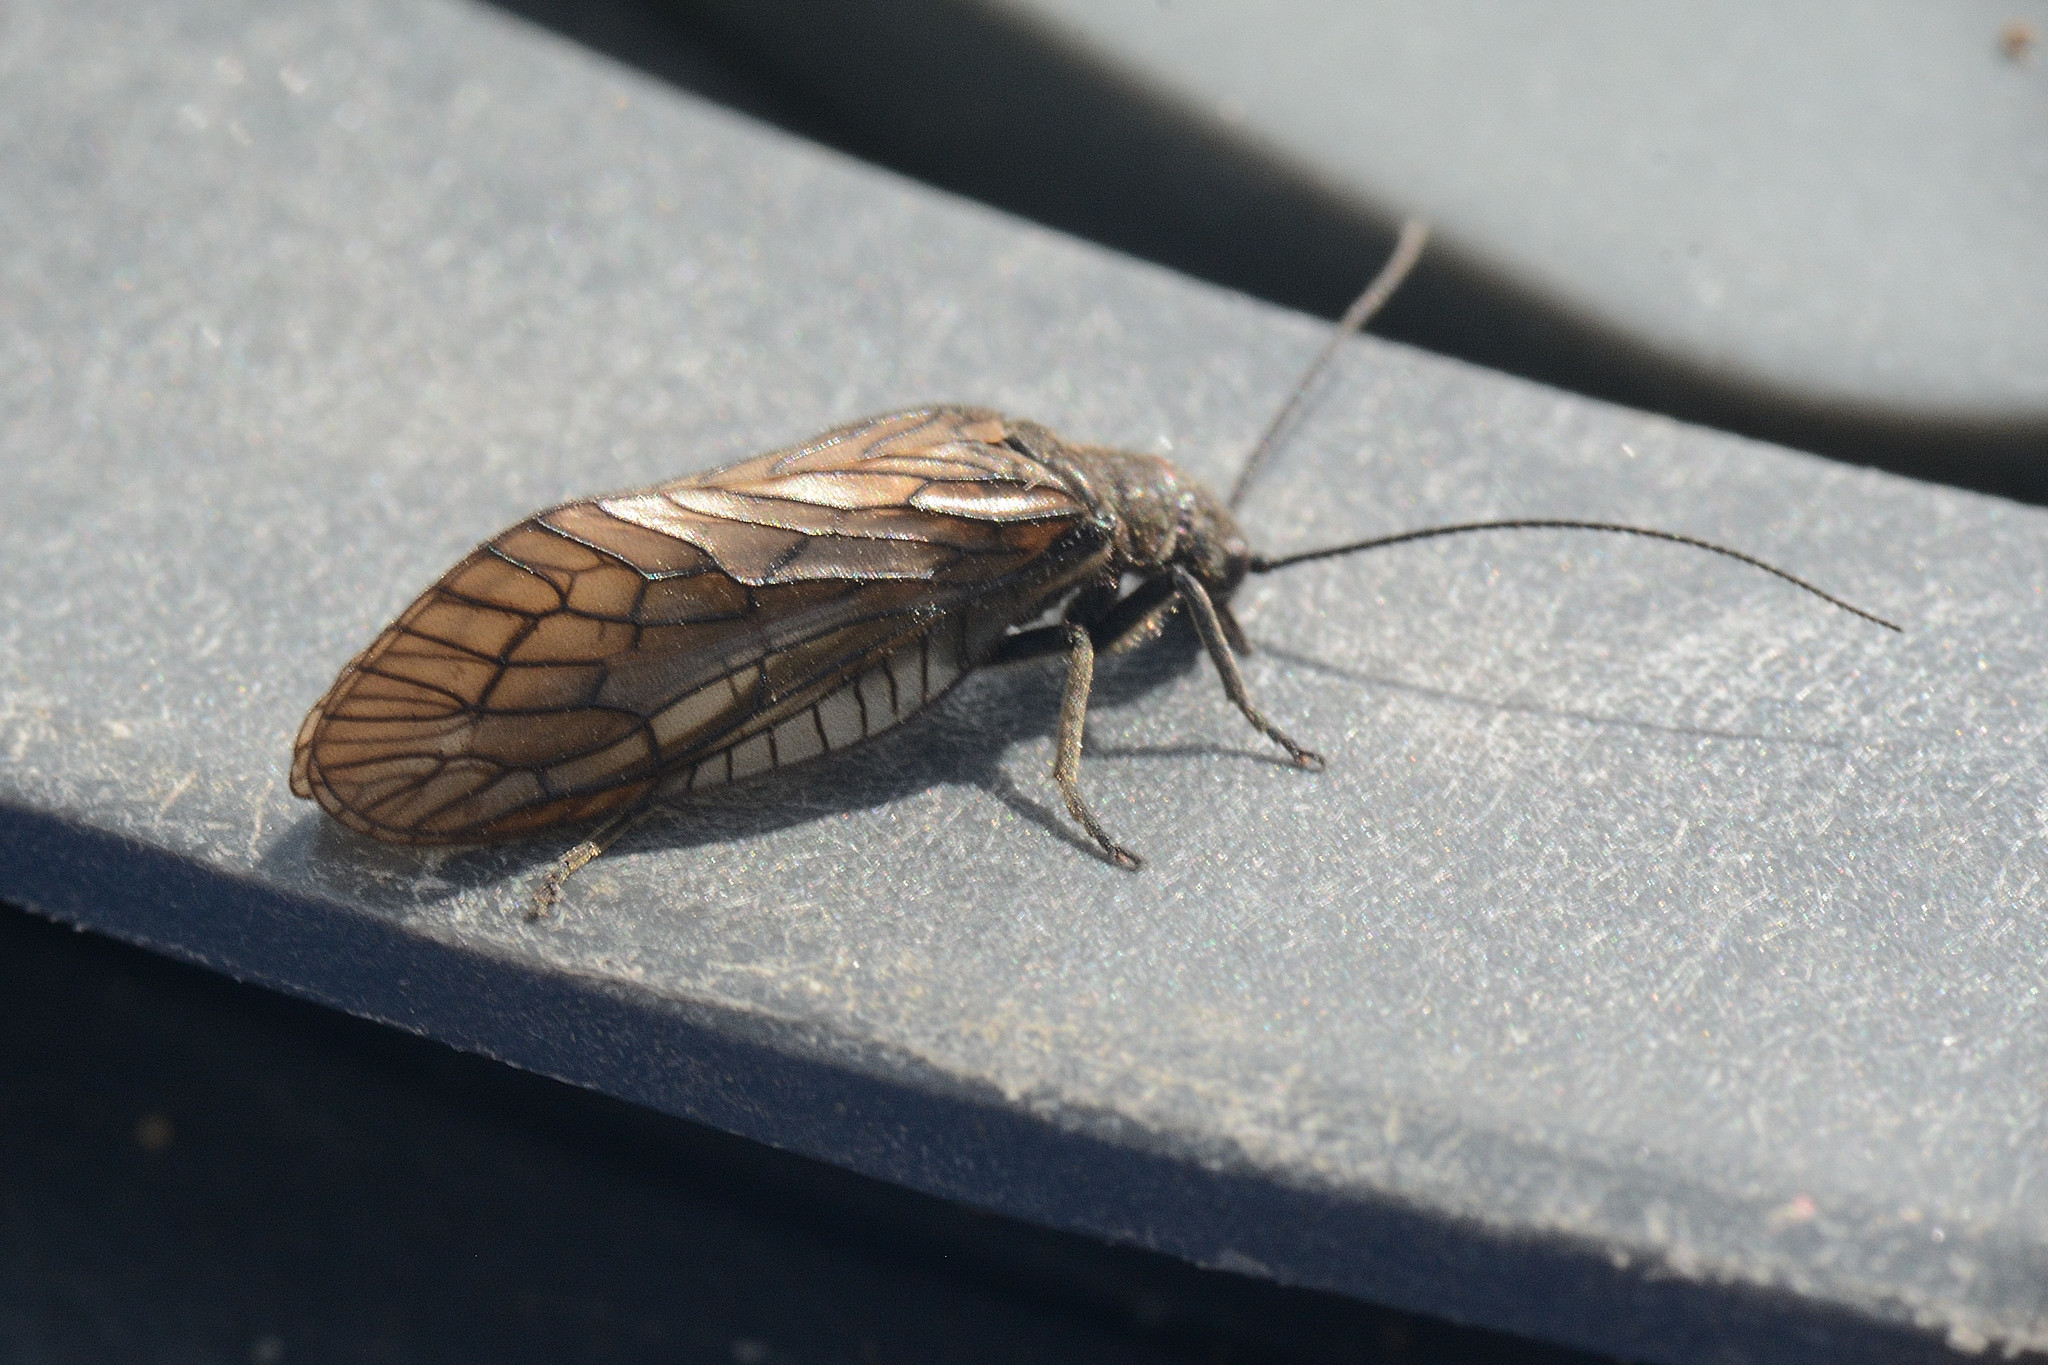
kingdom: Animalia
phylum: Arthropoda
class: Insecta
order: Megaloptera
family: Sialidae
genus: Sialis
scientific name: Sialis
